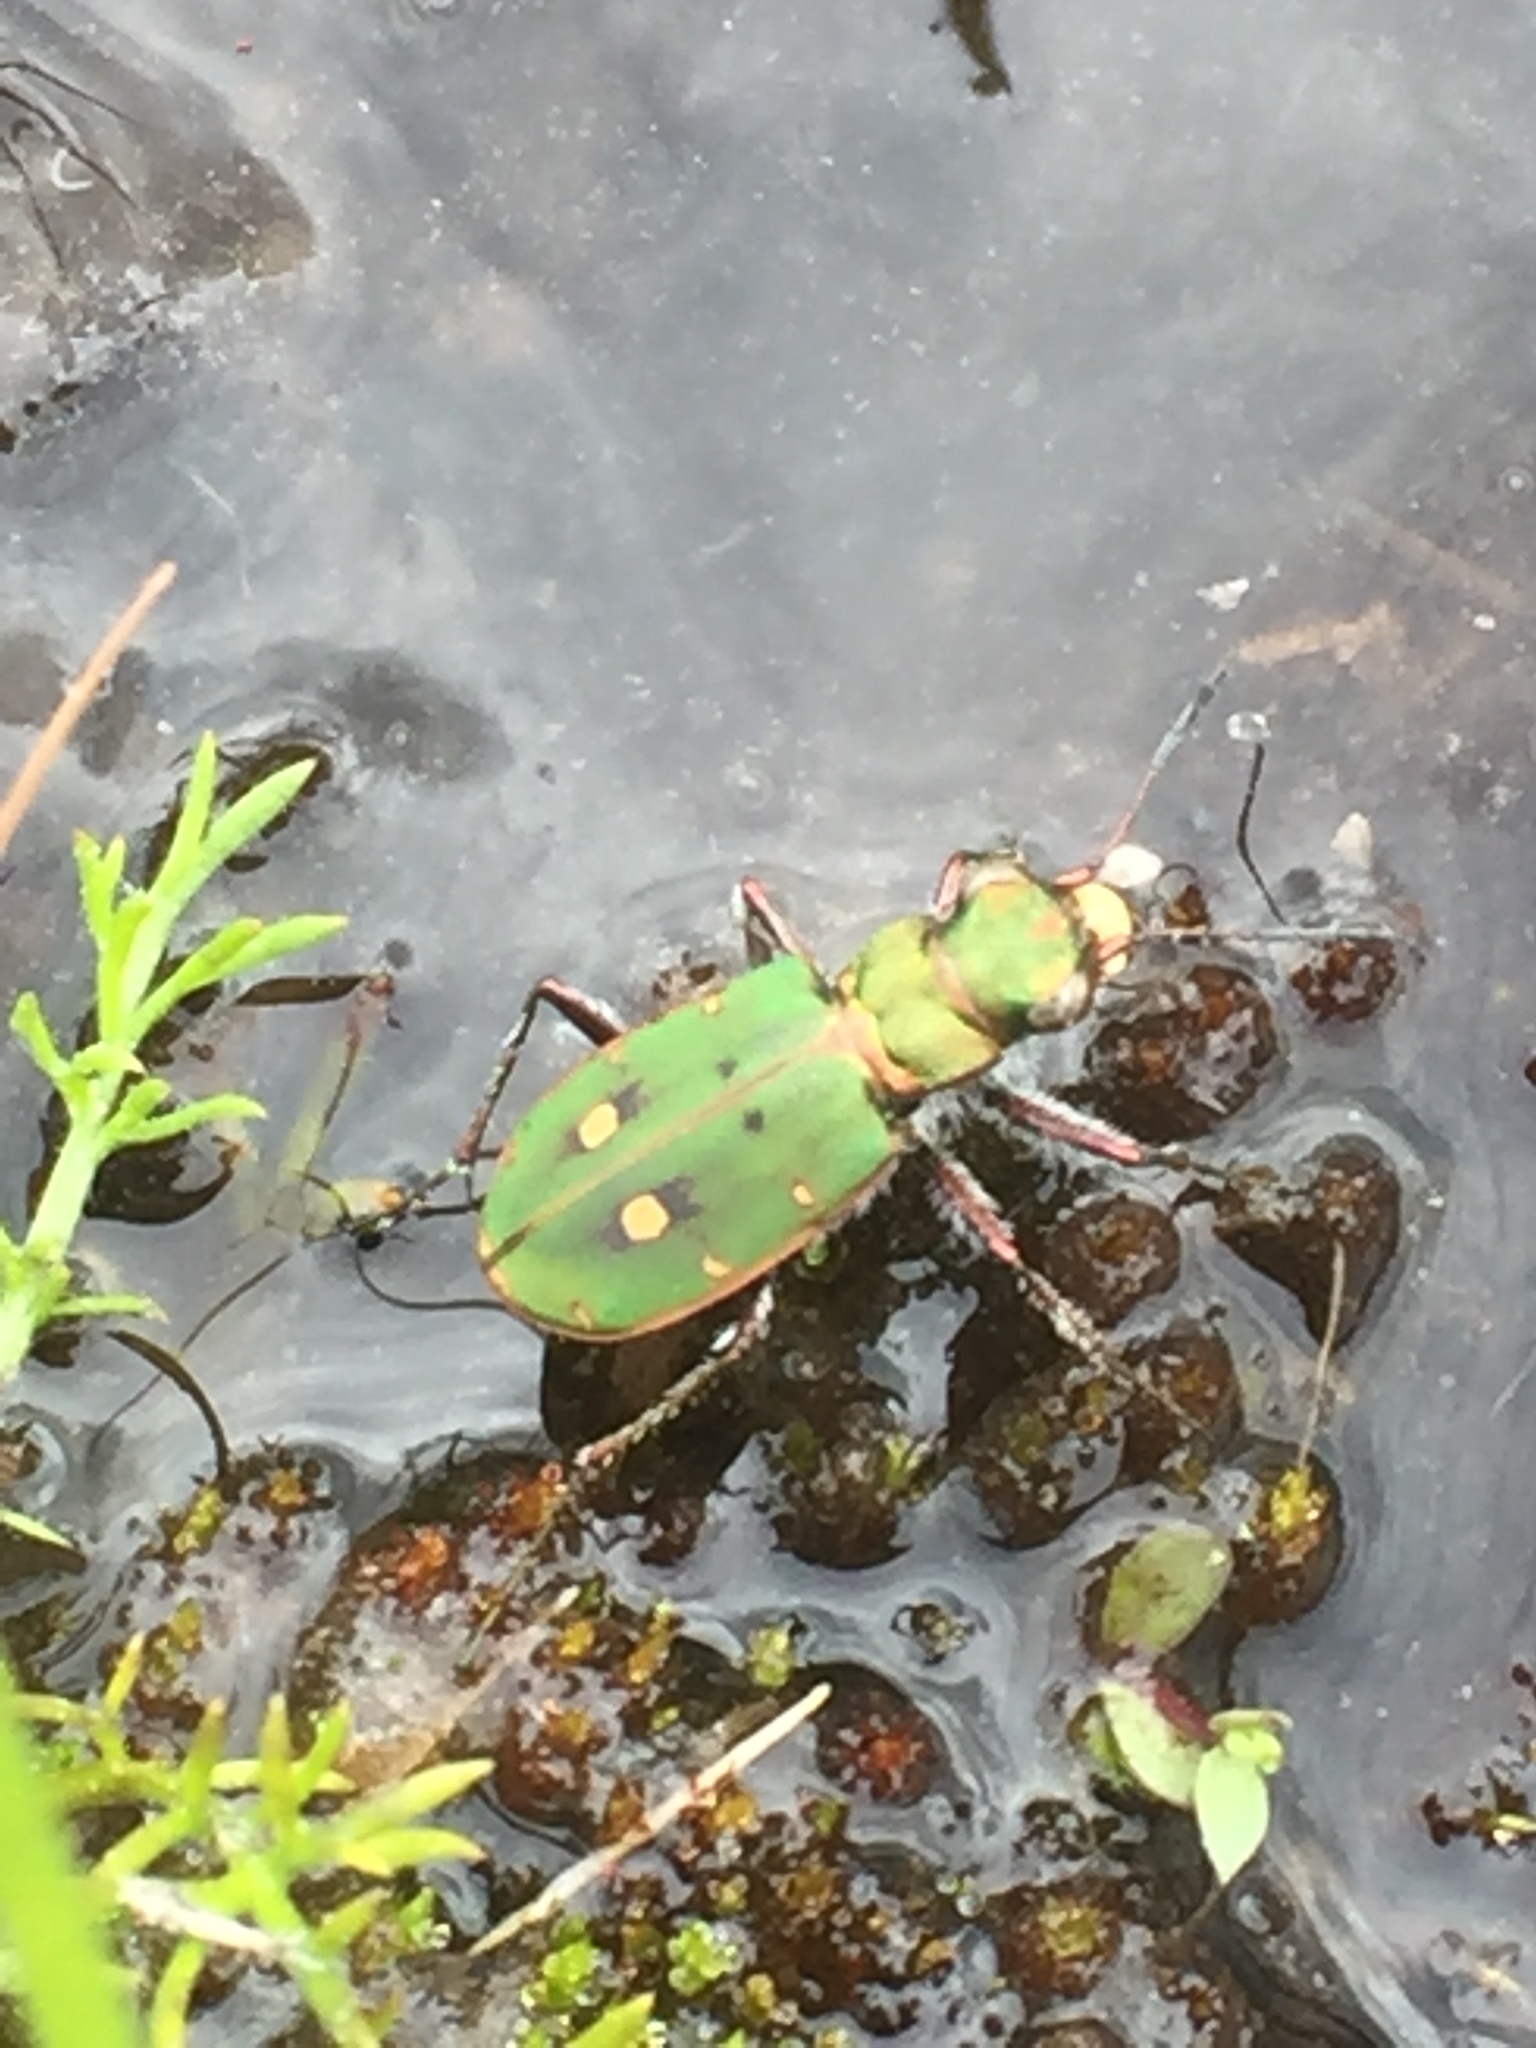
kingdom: Animalia
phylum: Arthropoda
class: Insecta
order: Coleoptera
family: Carabidae
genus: Cicindela
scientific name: Cicindela campestris
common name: Common tiger beetle
